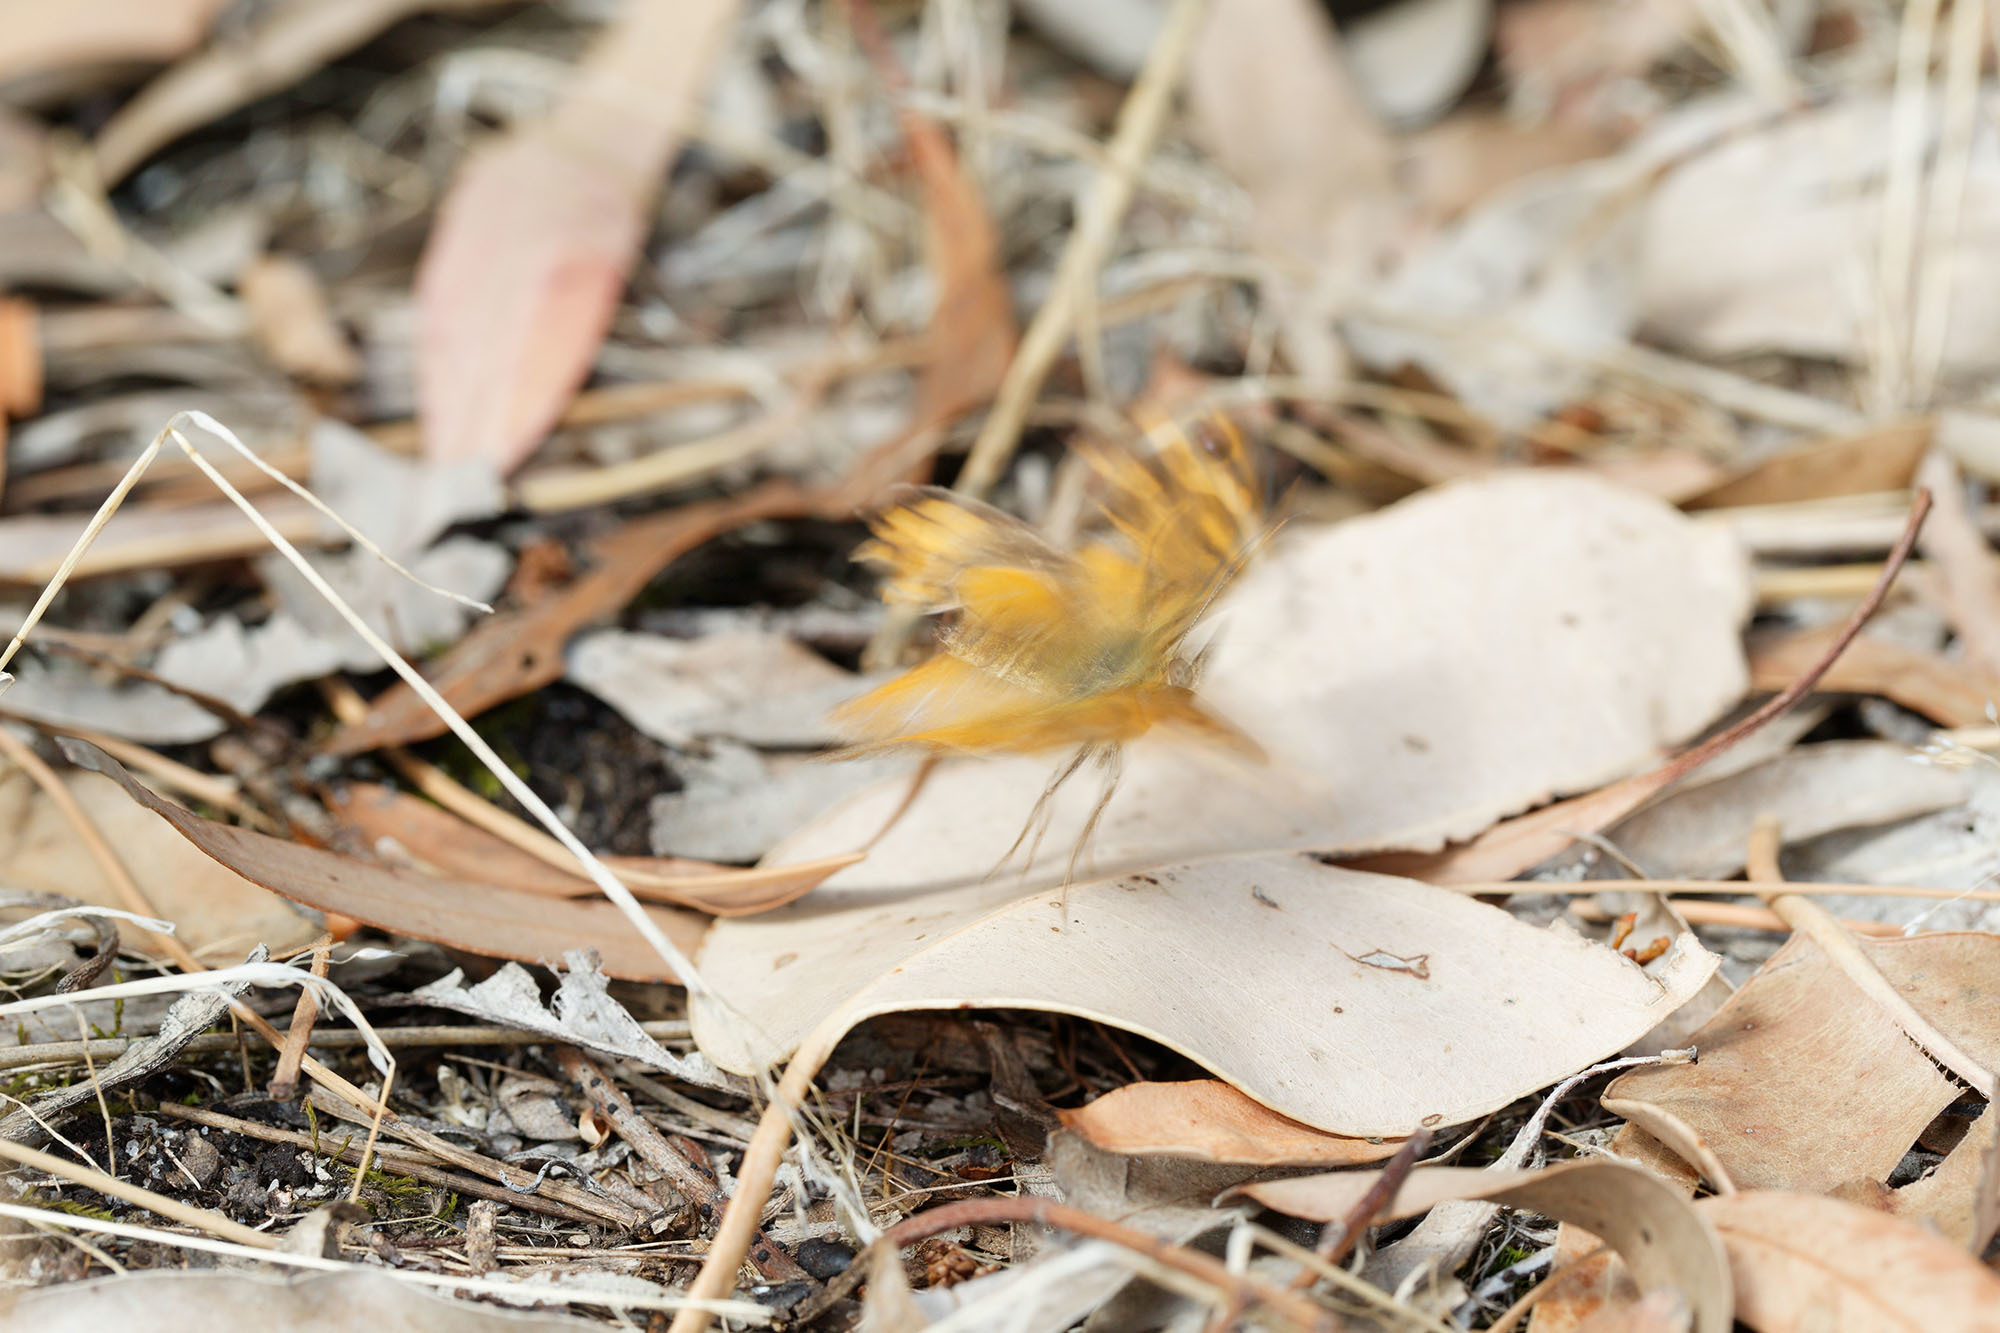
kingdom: Animalia
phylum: Arthropoda
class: Insecta
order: Lepidoptera
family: Nymphalidae
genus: Heteronympha
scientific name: Heteronympha merope
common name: Common brown
